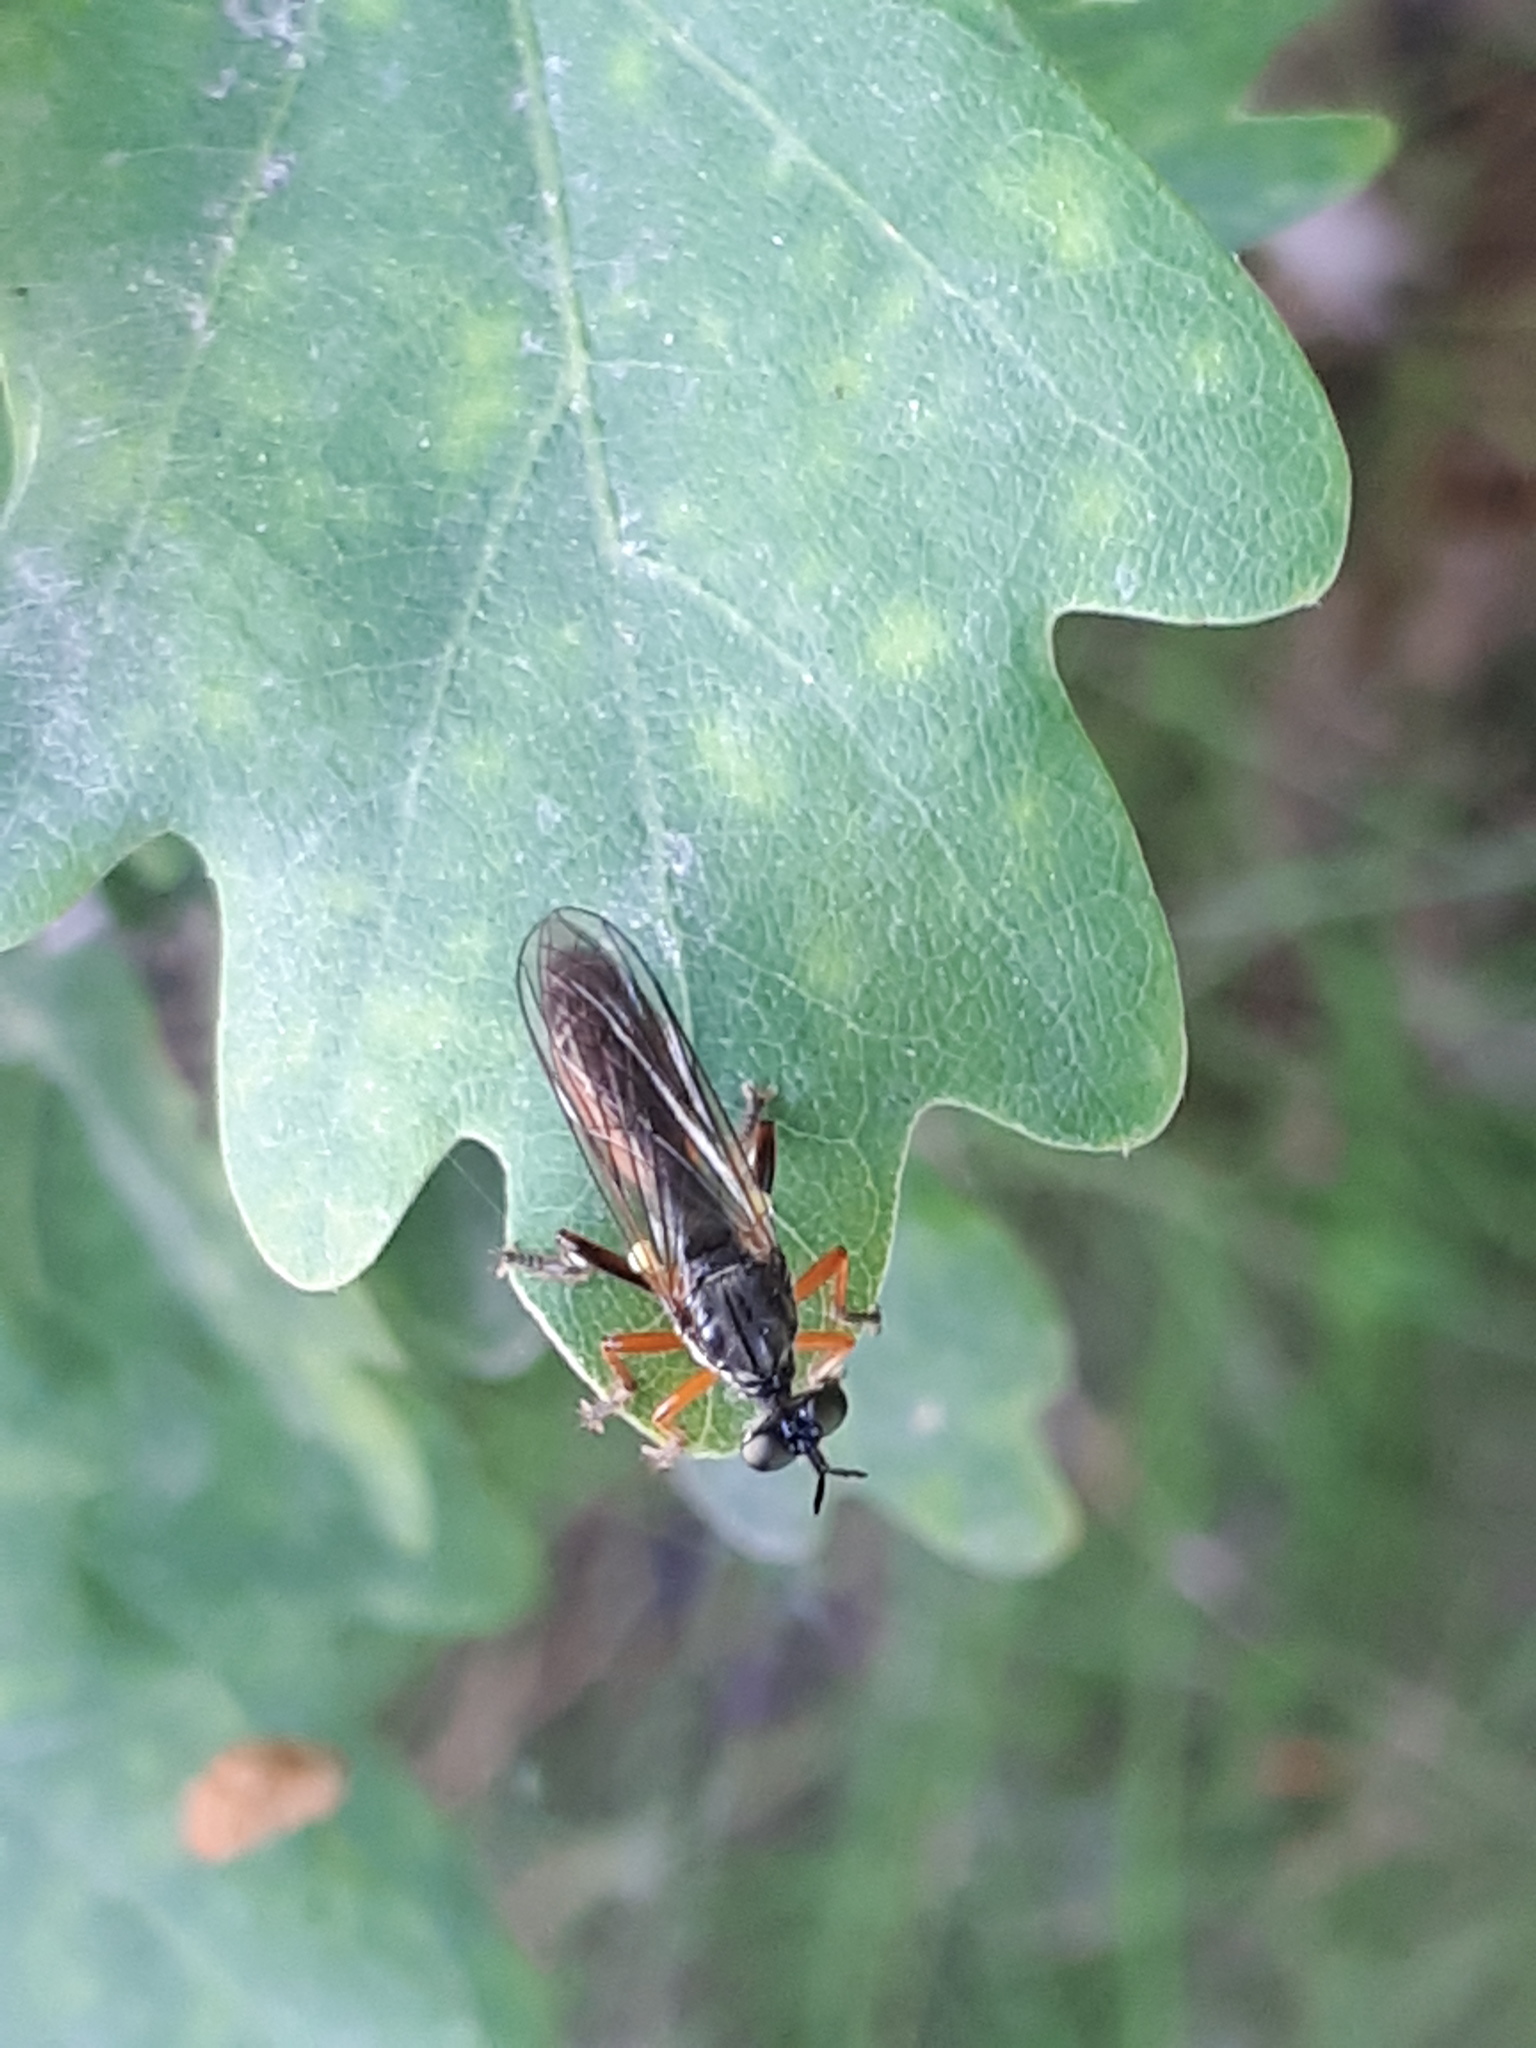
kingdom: Animalia
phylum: Arthropoda
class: Insecta
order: Diptera
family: Asilidae
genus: Dioctria
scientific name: Dioctria hyalipennis
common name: Stripe-legged robberfly
